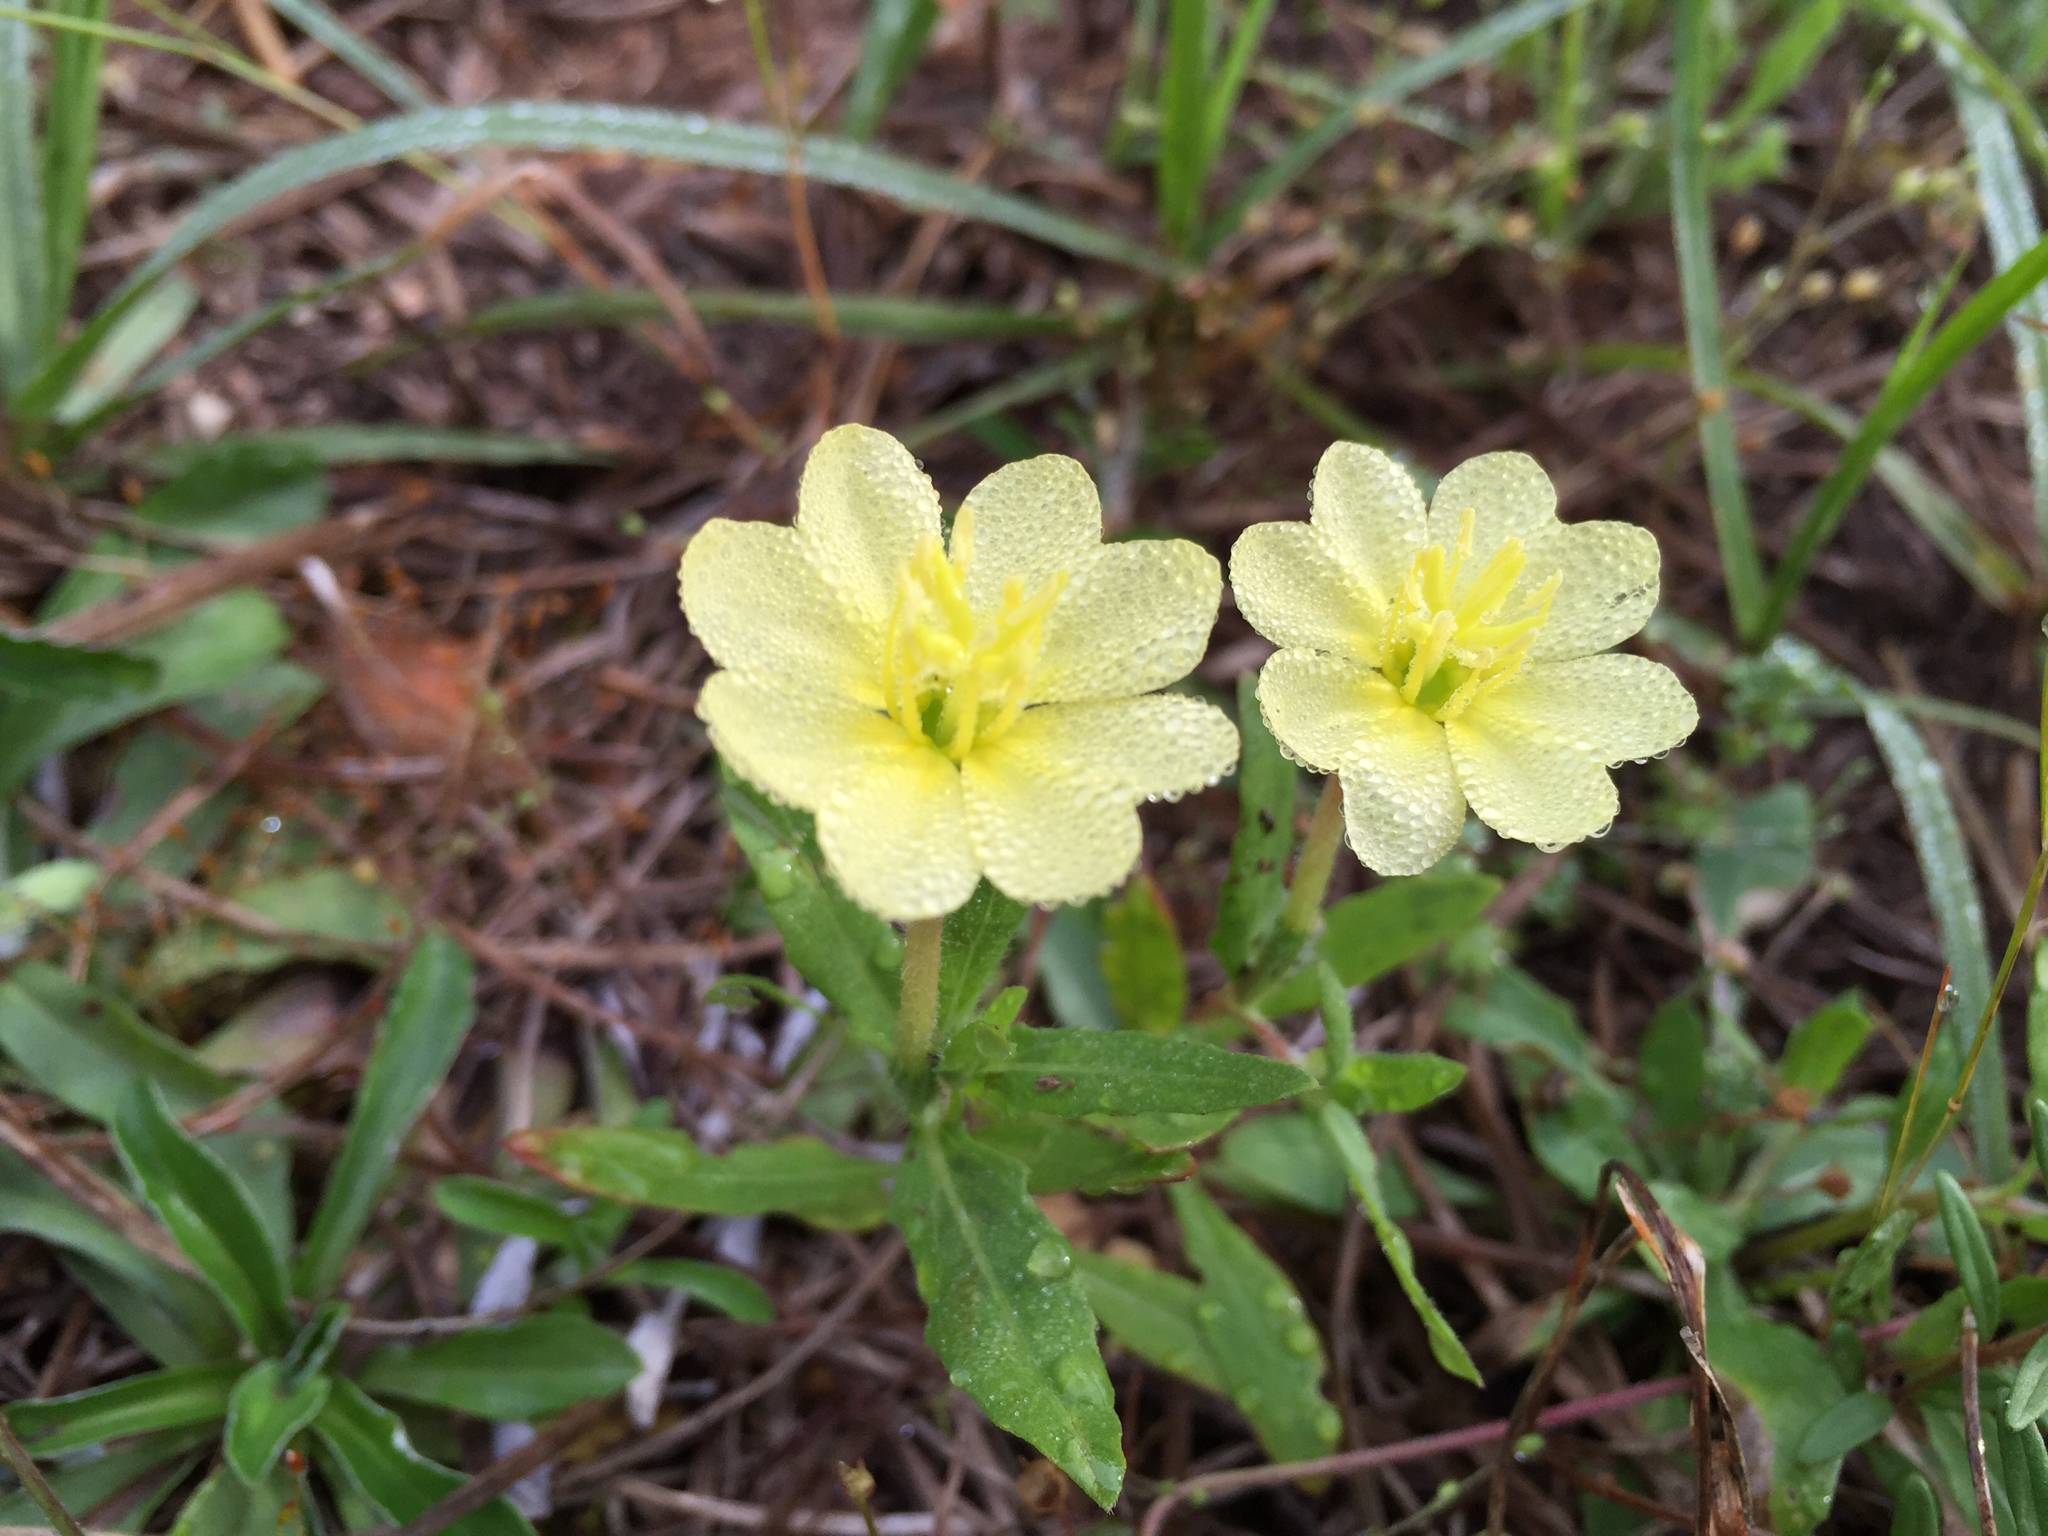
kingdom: Plantae
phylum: Tracheophyta
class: Magnoliopsida
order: Myrtales
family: Onagraceae
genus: Oenothera
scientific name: Oenothera laciniata
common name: Cut-leaved evening-primrose
